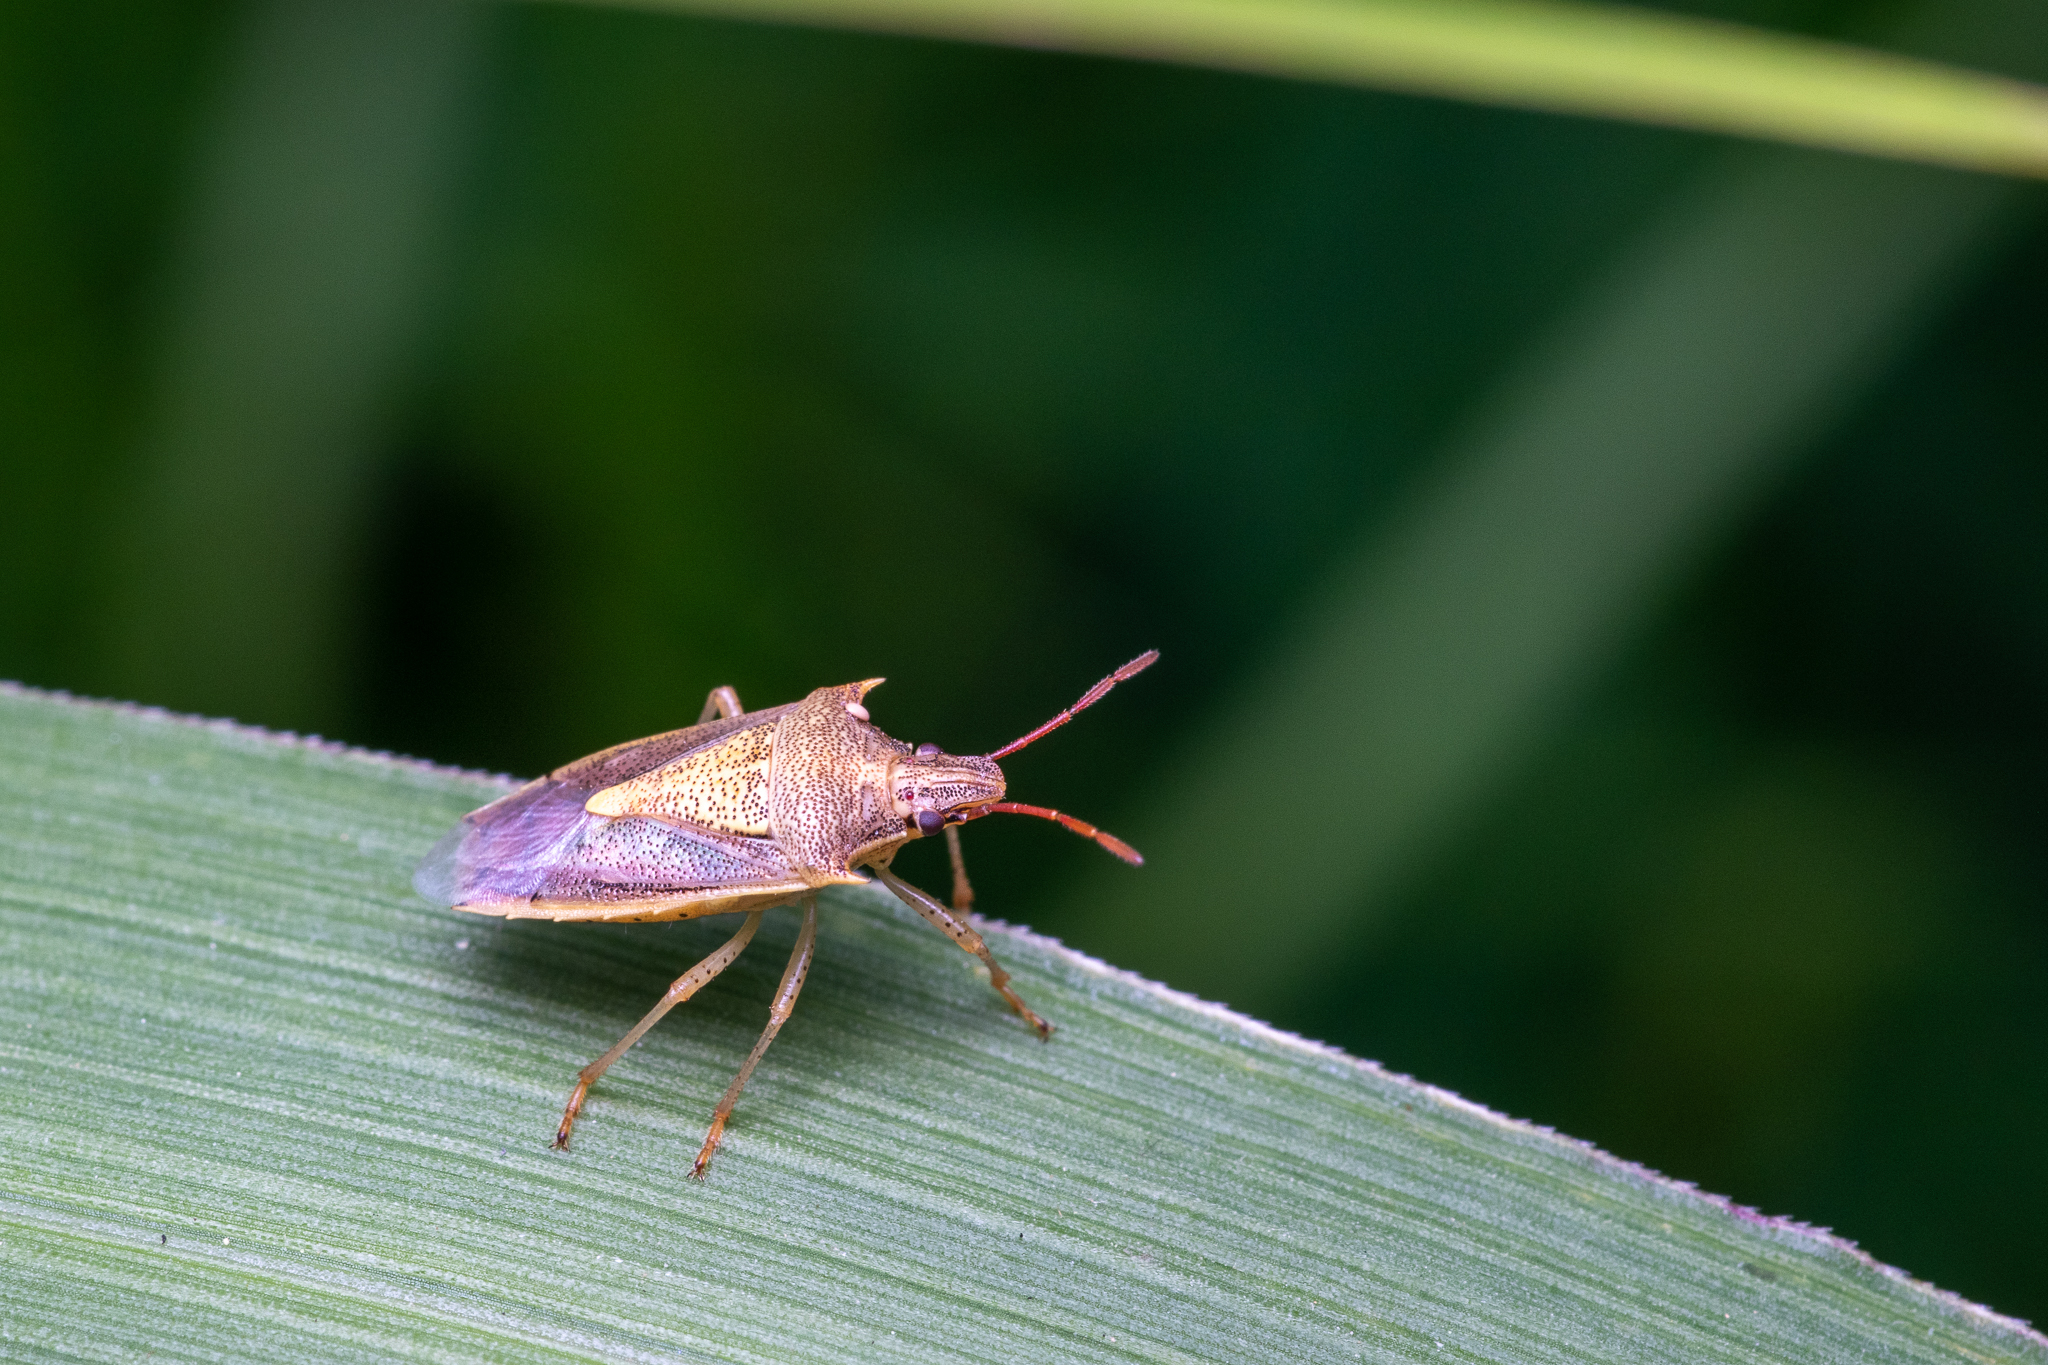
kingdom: Animalia
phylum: Arthropoda
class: Insecta
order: Hemiptera
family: Pentatomidae
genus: Oebalus
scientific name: Oebalus pugnax
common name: Rice stink bug
